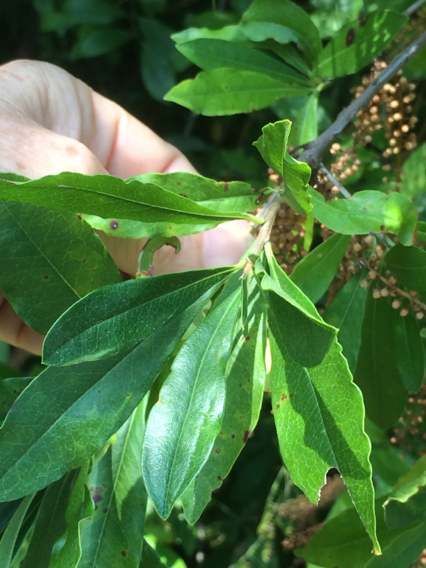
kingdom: Plantae
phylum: Tracheophyta
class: Magnoliopsida
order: Ericales
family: Cyrillaceae
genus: Cyrilla
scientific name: Cyrilla racemiflora
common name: Black titi
